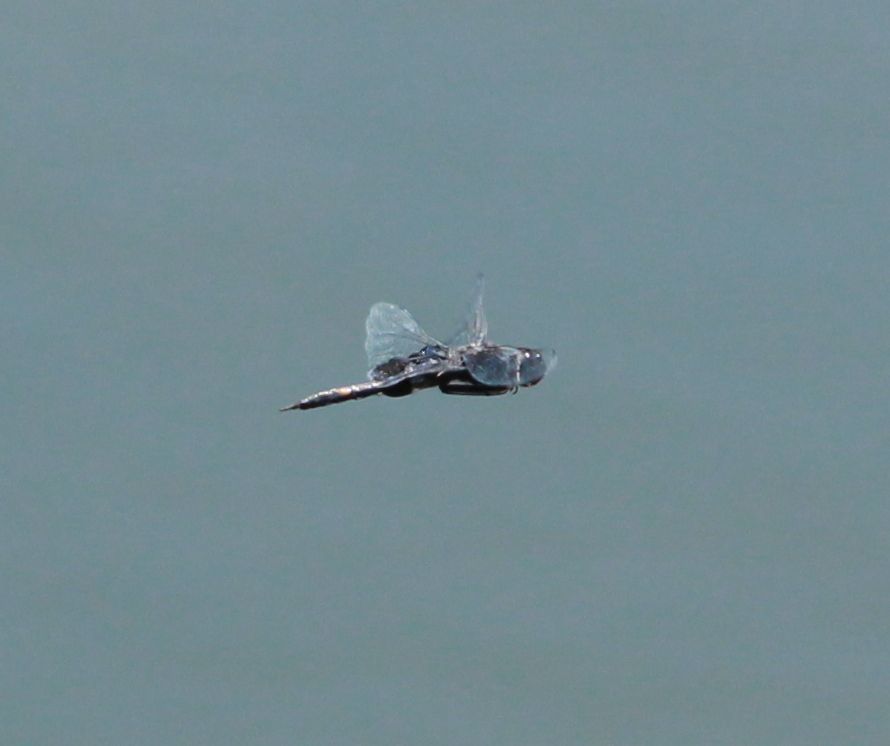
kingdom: Animalia
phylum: Arthropoda
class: Insecta
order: Odonata
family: Libellulidae
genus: Tramea
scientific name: Tramea lacerata
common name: Black saddlebags
